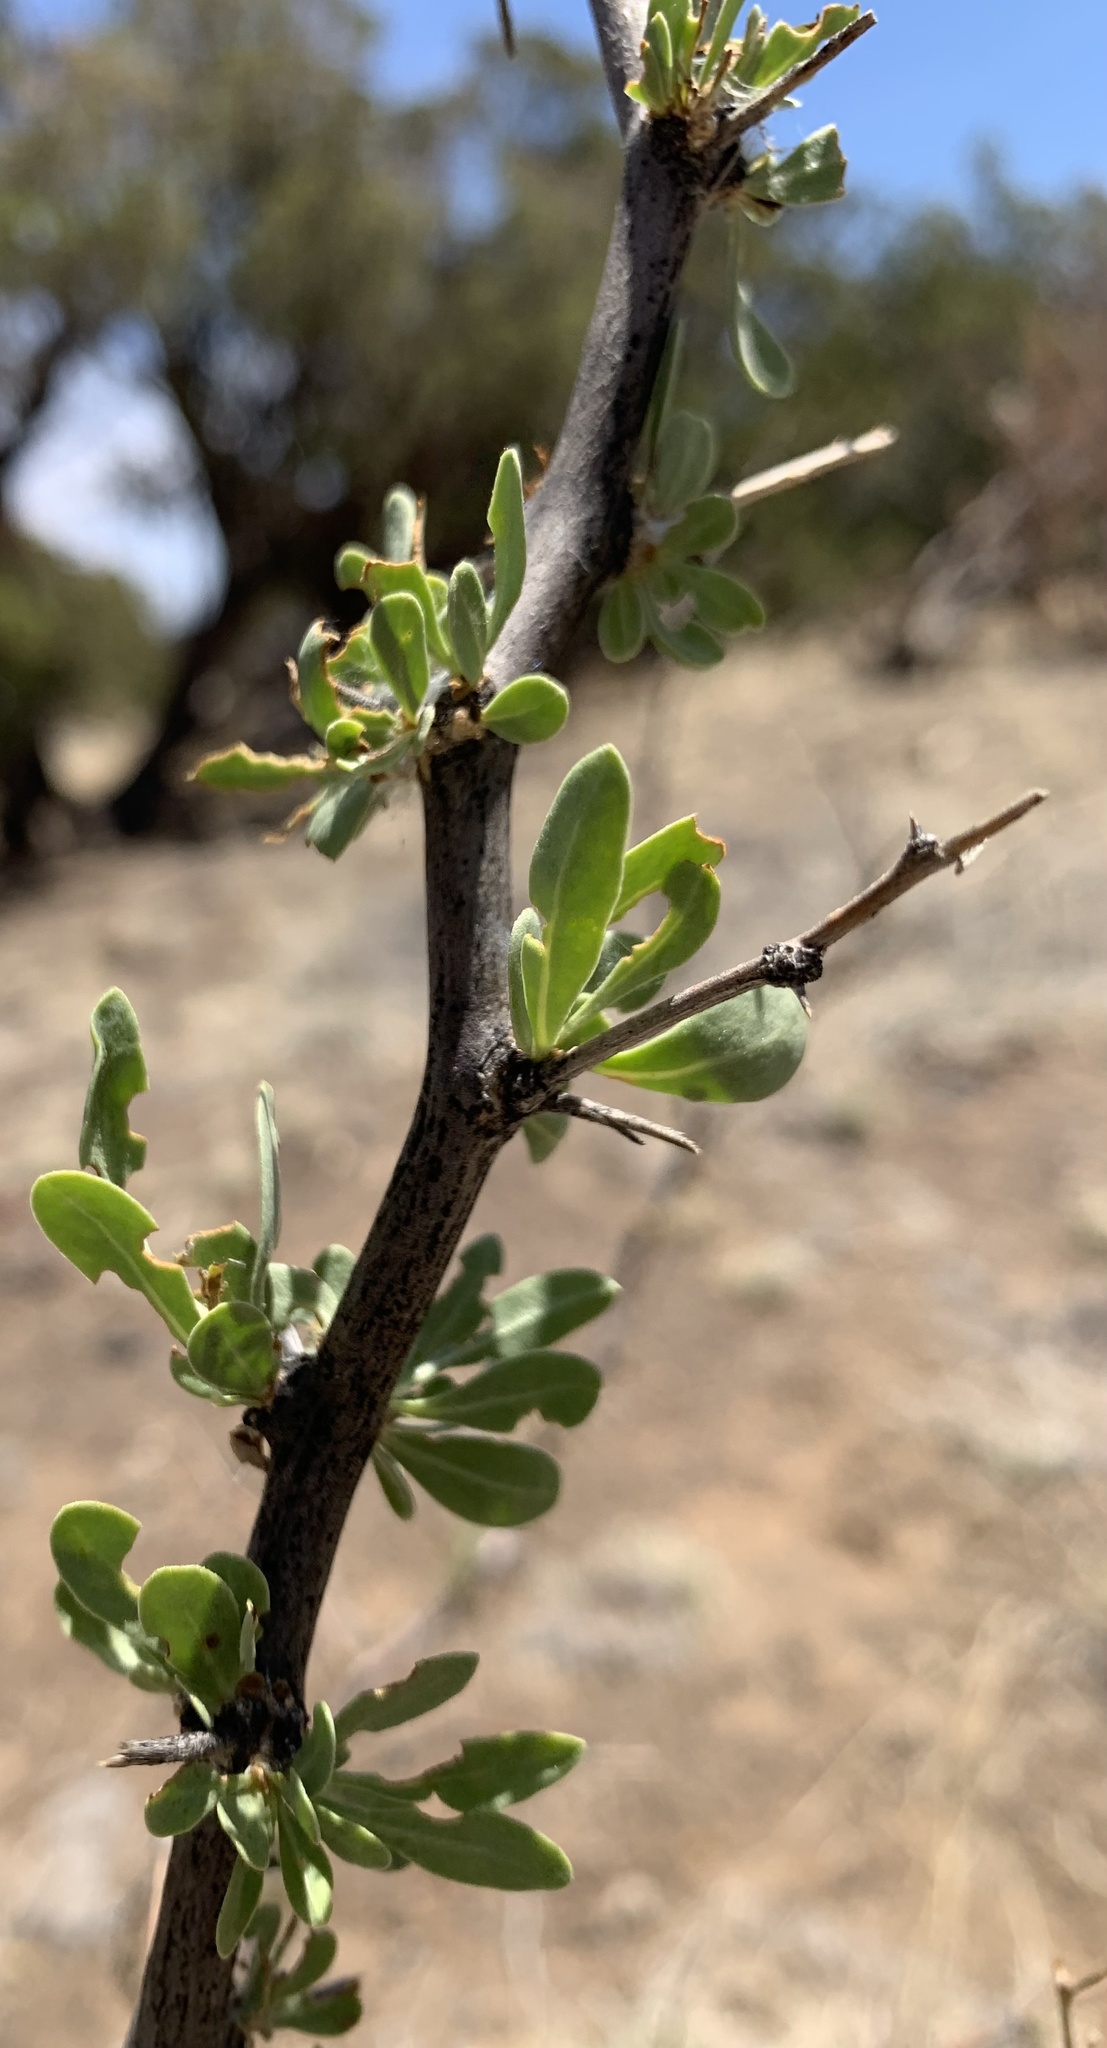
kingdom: Plantae
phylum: Tracheophyta
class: Magnoliopsida
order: Solanales
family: Solanaceae
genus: Lycium
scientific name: Lycium pallidum
